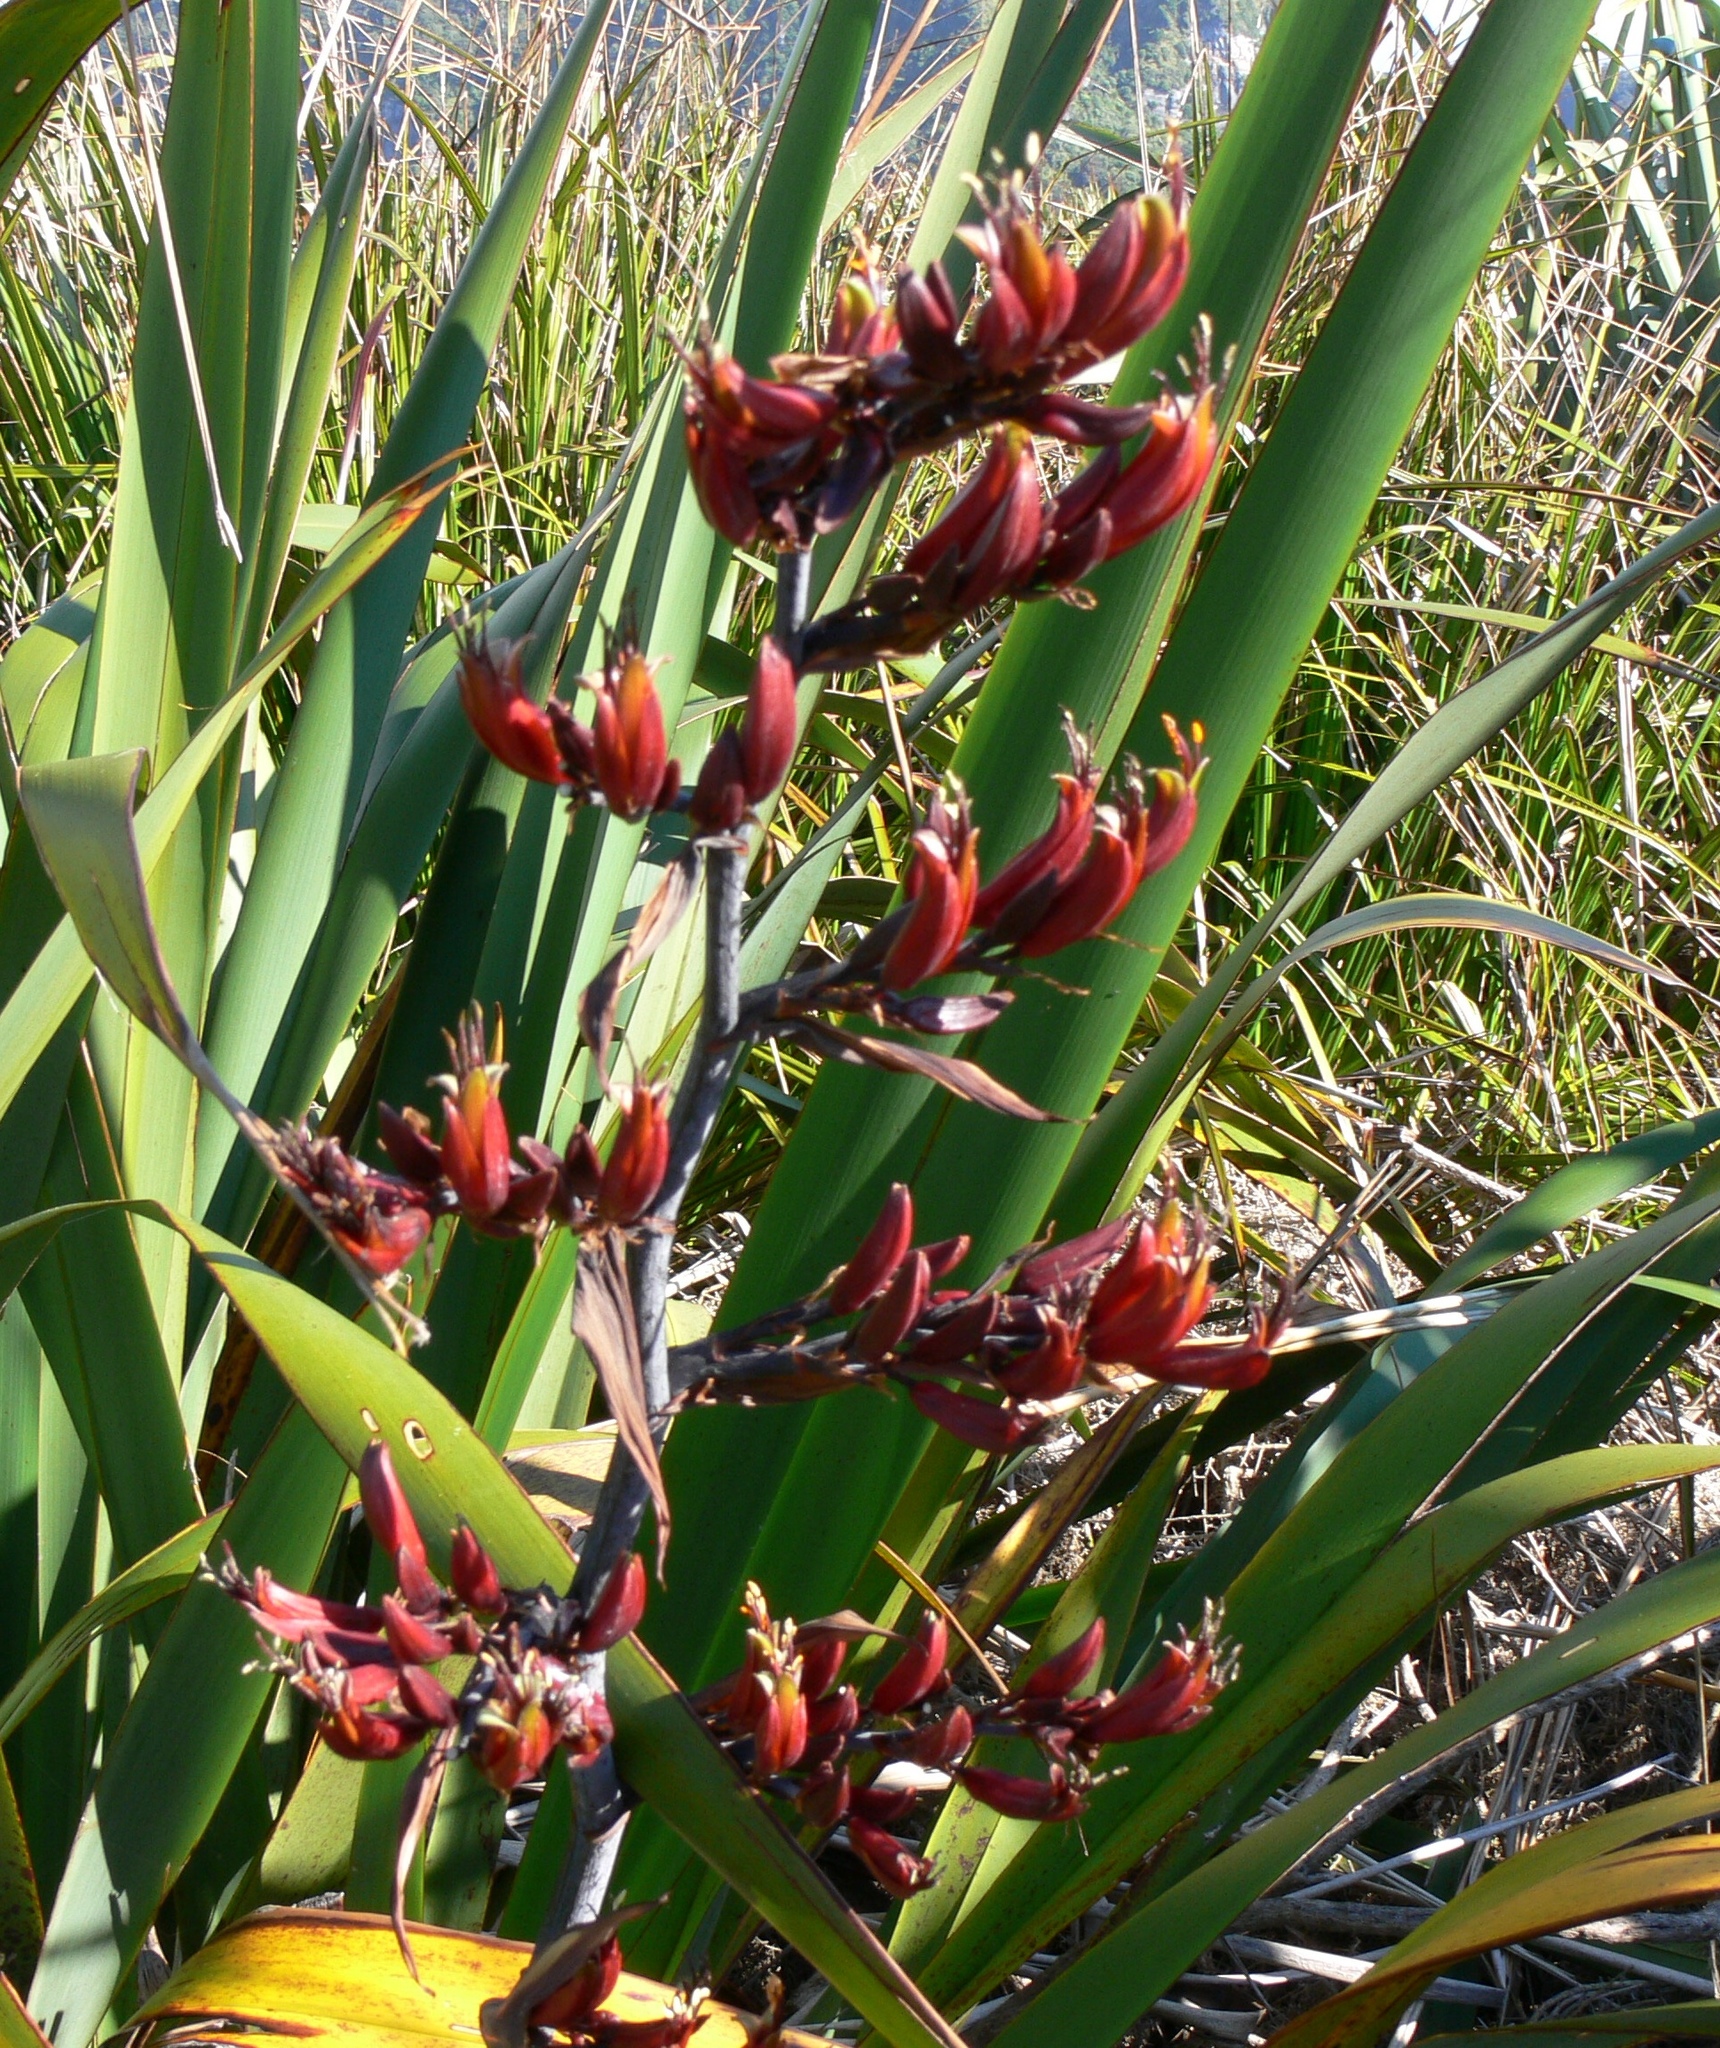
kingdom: Plantae
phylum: Tracheophyta
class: Liliopsida
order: Asparagales
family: Asphodelaceae
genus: Phormium
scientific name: Phormium tenax
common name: New zealand flax
